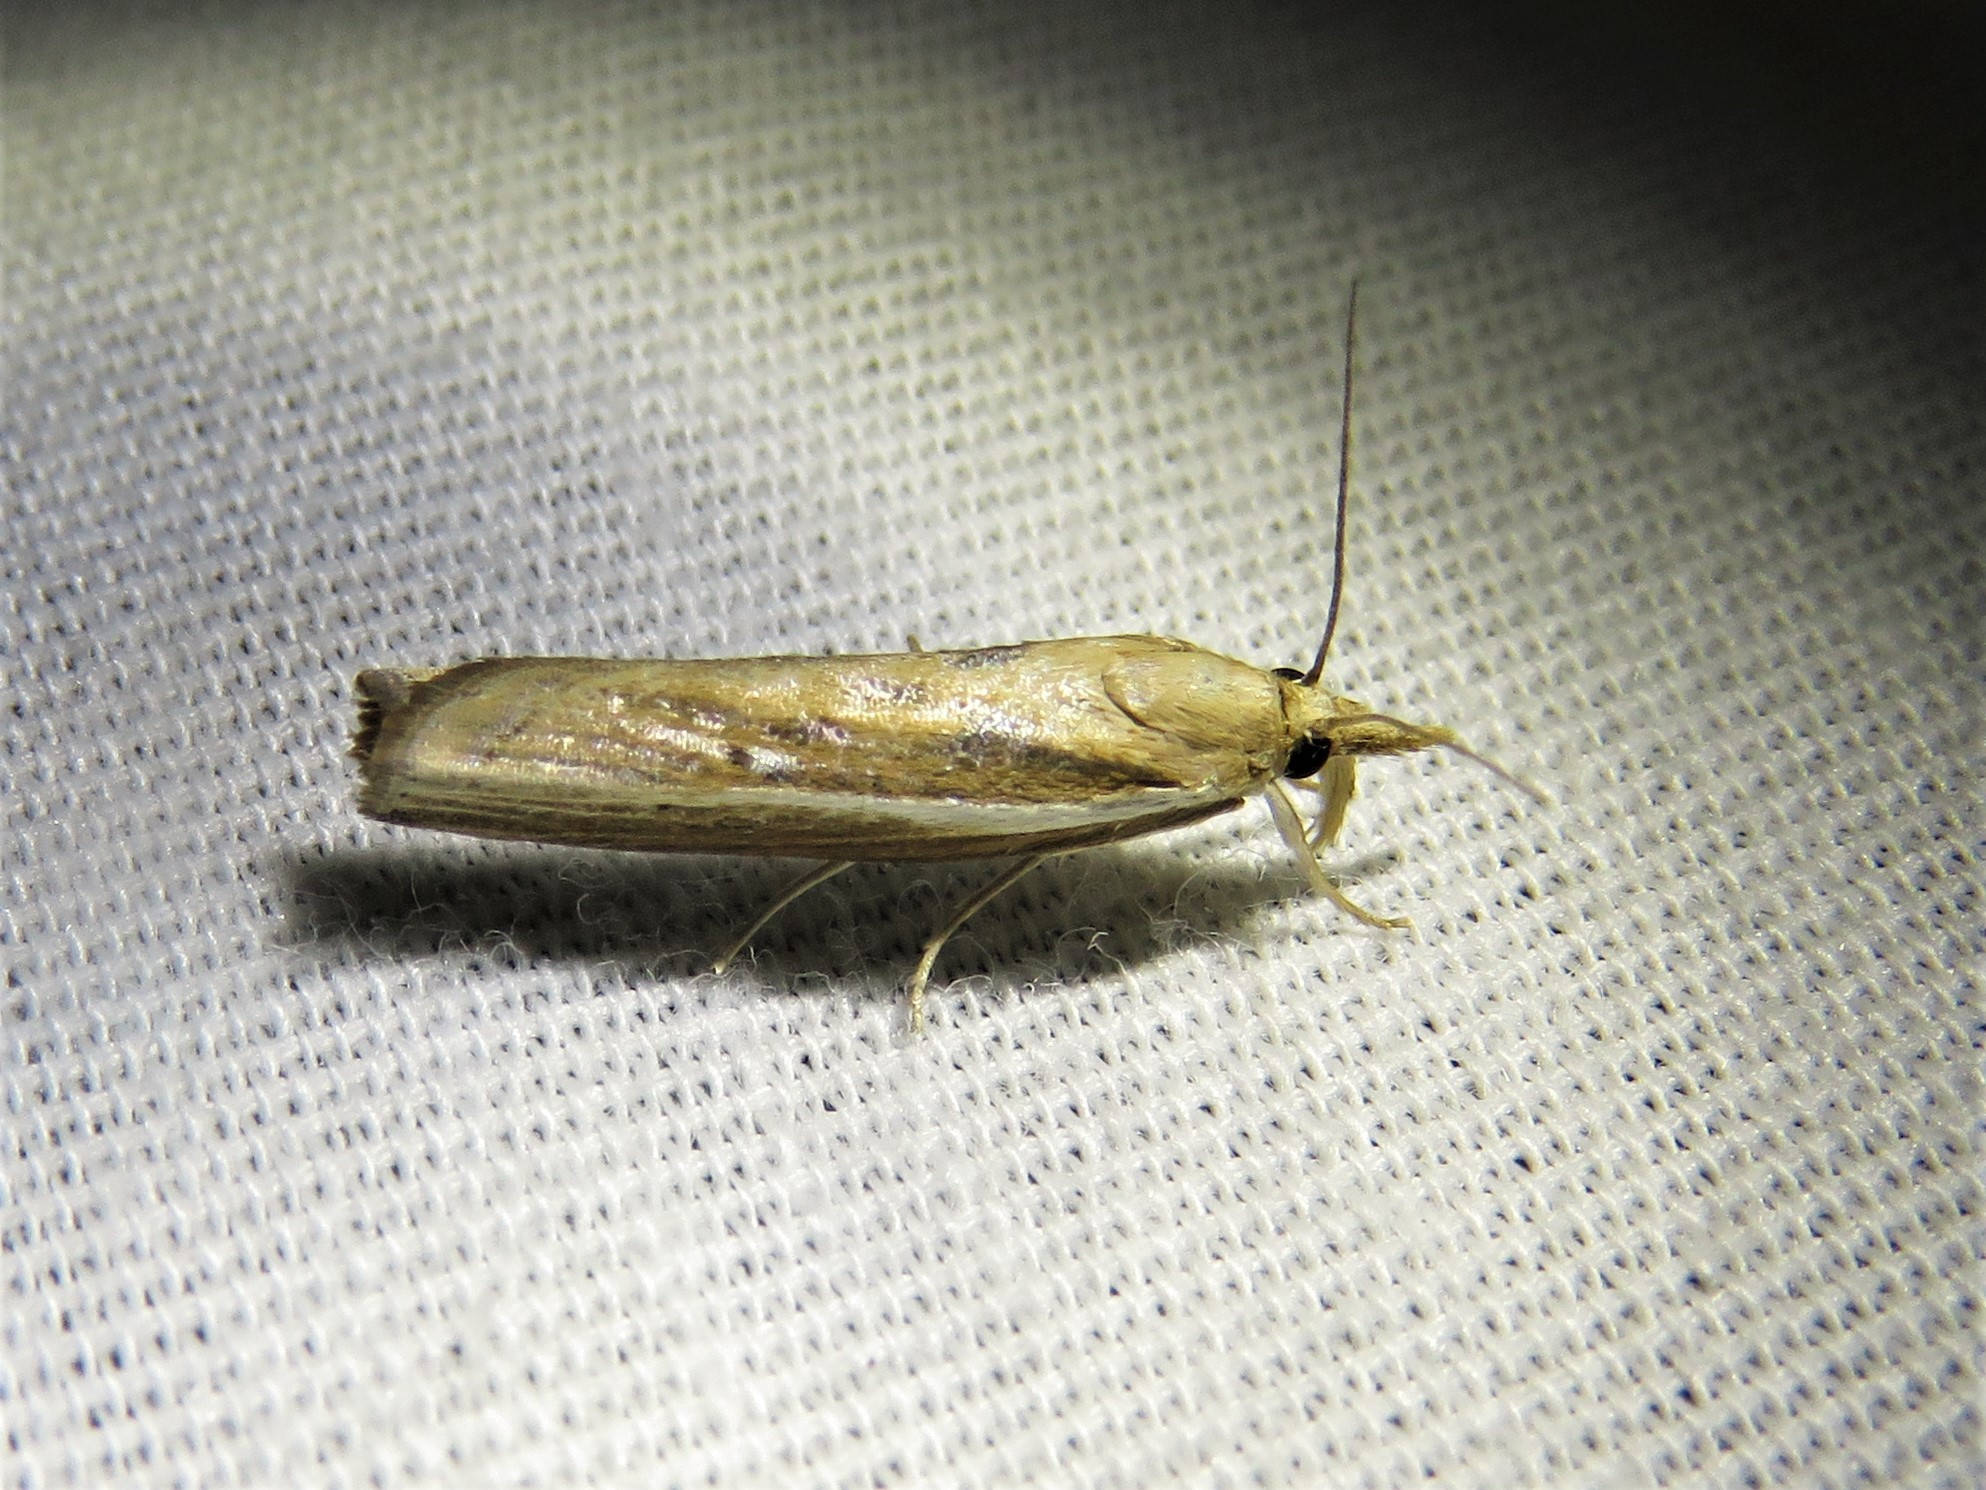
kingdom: Animalia
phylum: Arthropoda
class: Insecta
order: Lepidoptera
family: Crambidae
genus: Fissicrambus
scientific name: Fissicrambus profanellus
